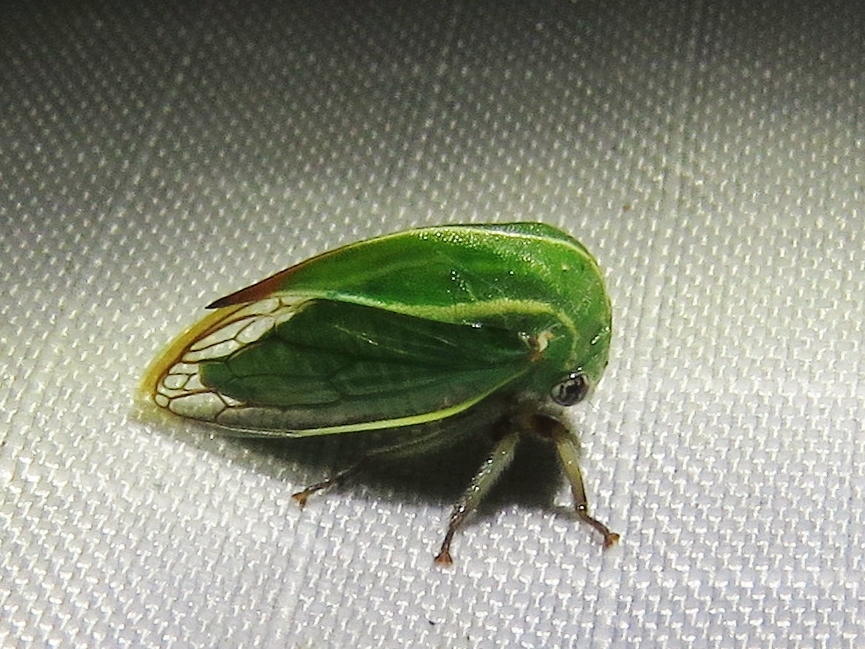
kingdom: Animalia
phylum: Arthropoda
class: Insecta
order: Hemiptera
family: Membracidae
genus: Tortistilus
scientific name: Tortistilus lateralis
